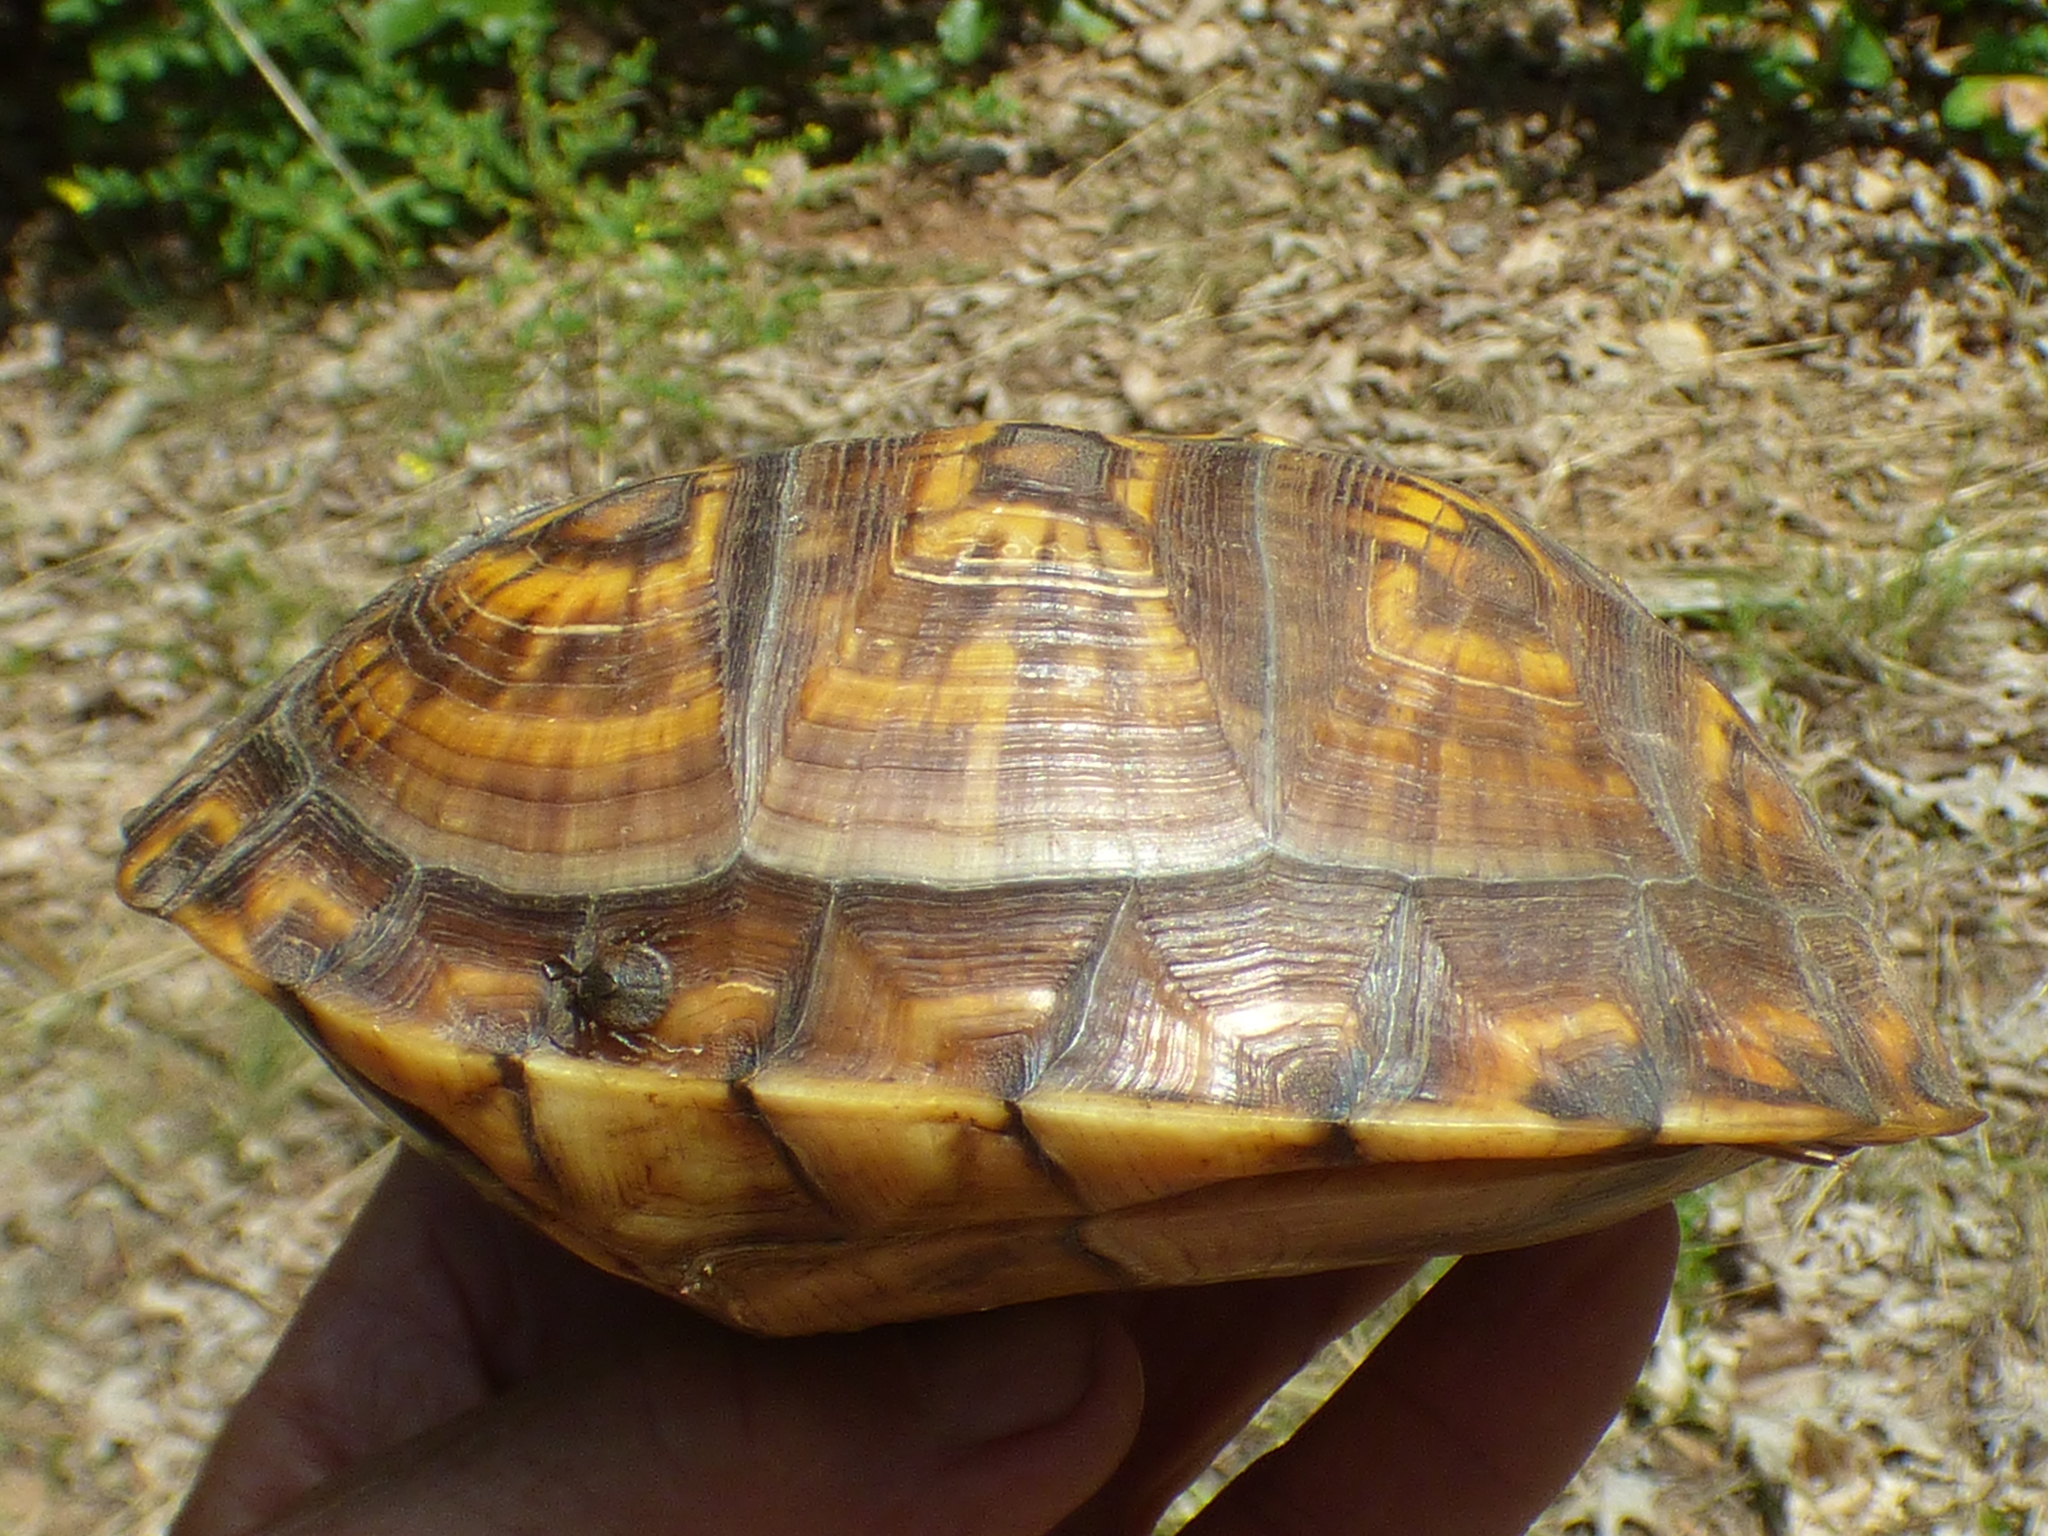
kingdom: Animalia
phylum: Chordata
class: Testudines
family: Emydidae
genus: Terrapene
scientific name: Terrapene carolina
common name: Common box turtle
